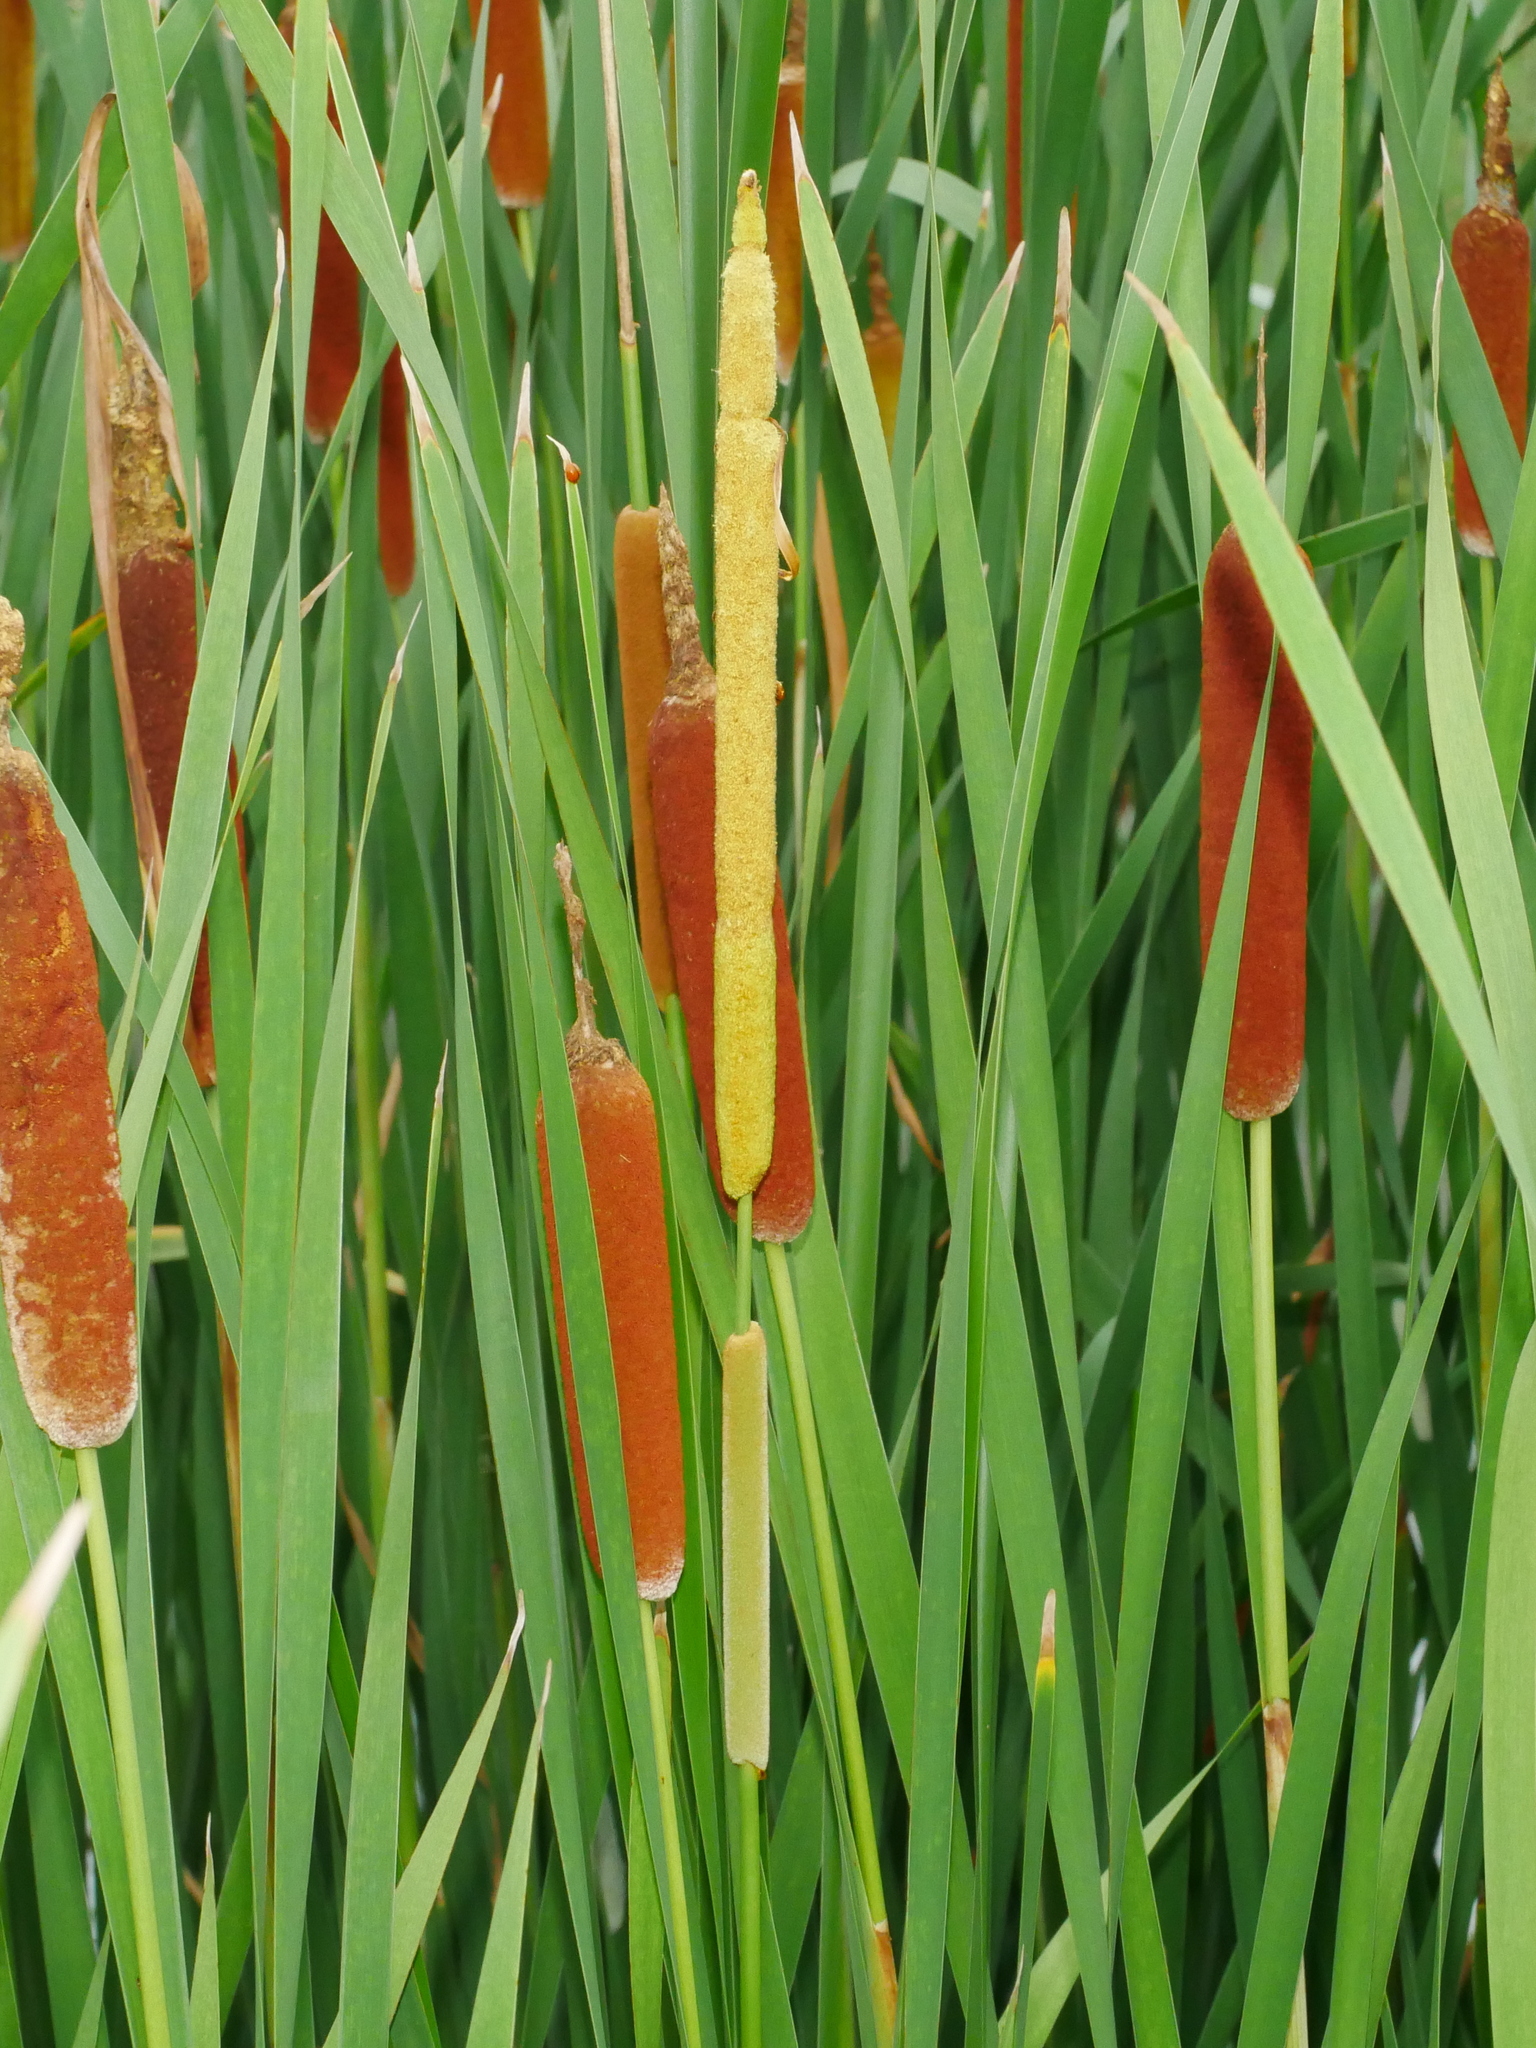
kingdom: Plantae
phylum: Tracheophyta
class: Liliopsida
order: Poales
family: Typhaceae
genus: Typha
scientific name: Typha angustifolia
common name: Lesser bulrush
